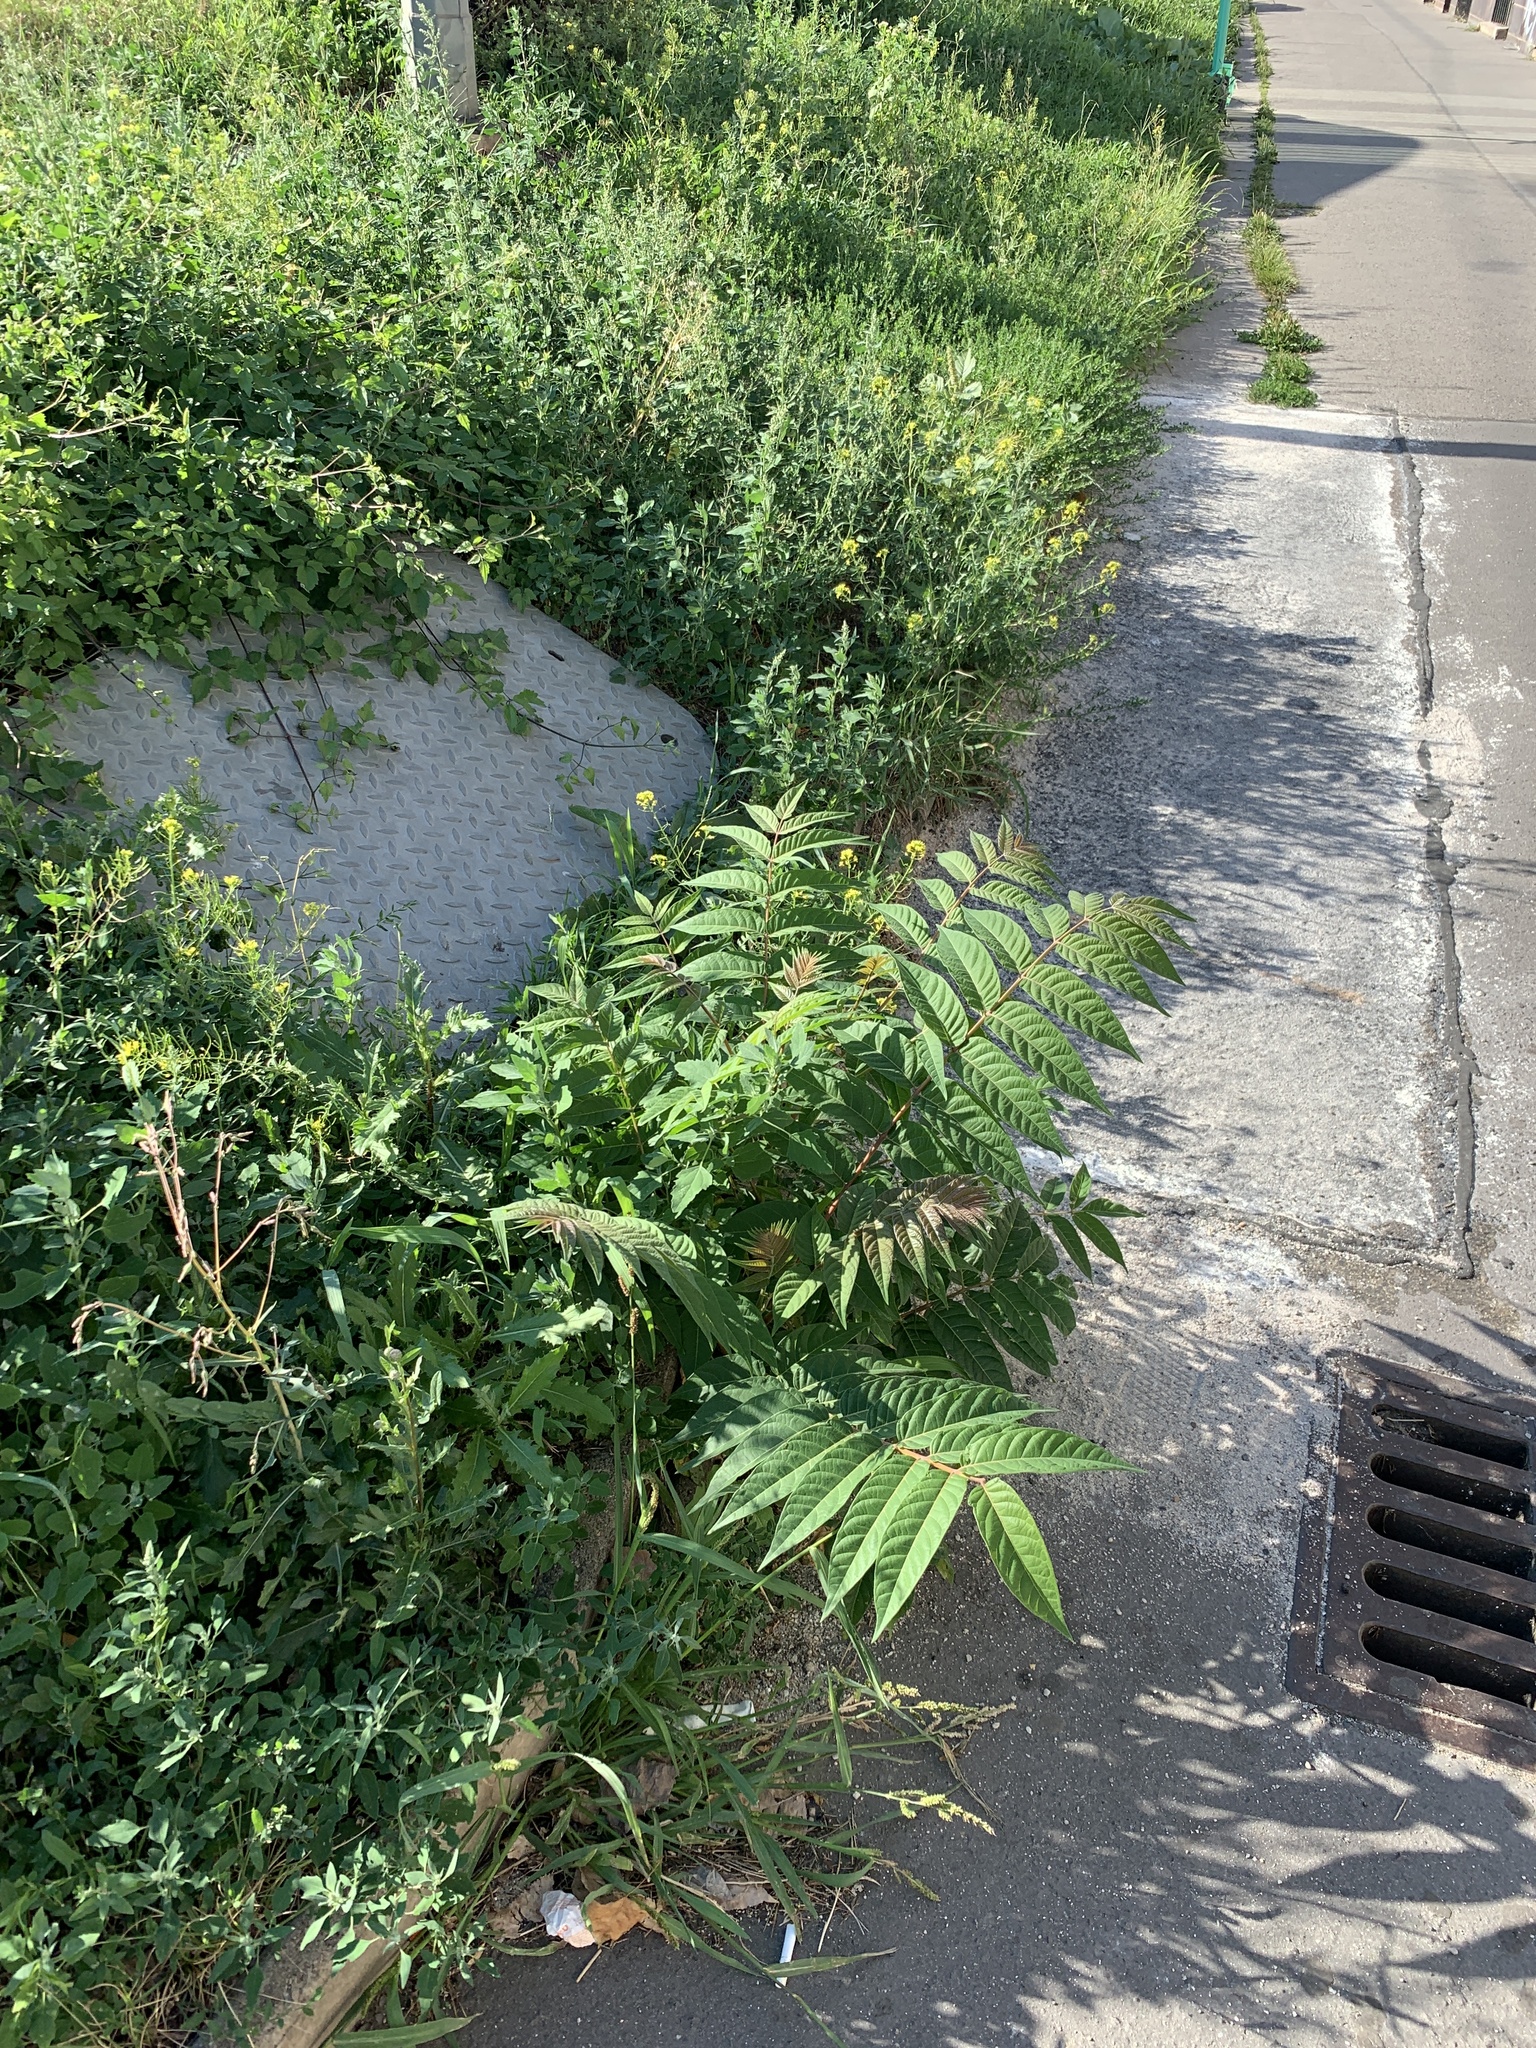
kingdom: Plantae
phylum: Tracheophyta
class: Magnoliopsida
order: Sapindales
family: Simaroubaceae
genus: Ailanthus
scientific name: Ailanthus altissima
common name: Tree-of-heaven
